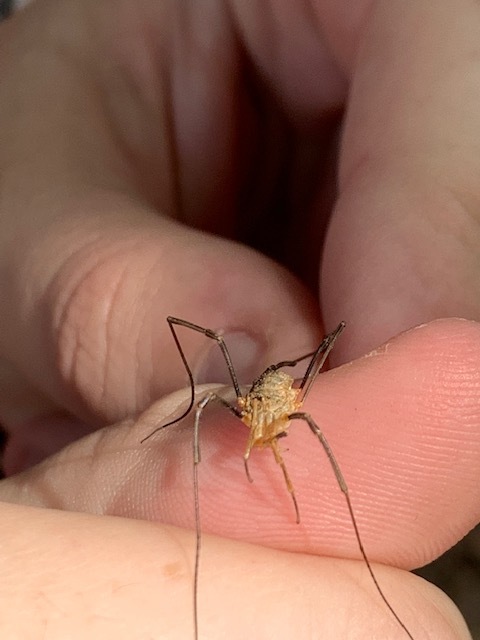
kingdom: Animalia
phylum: Arthropoda
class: Arachnida
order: Opiliones
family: Phalangiidae
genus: Phalangium
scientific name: Phalangium opilio
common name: Daddy longleg
